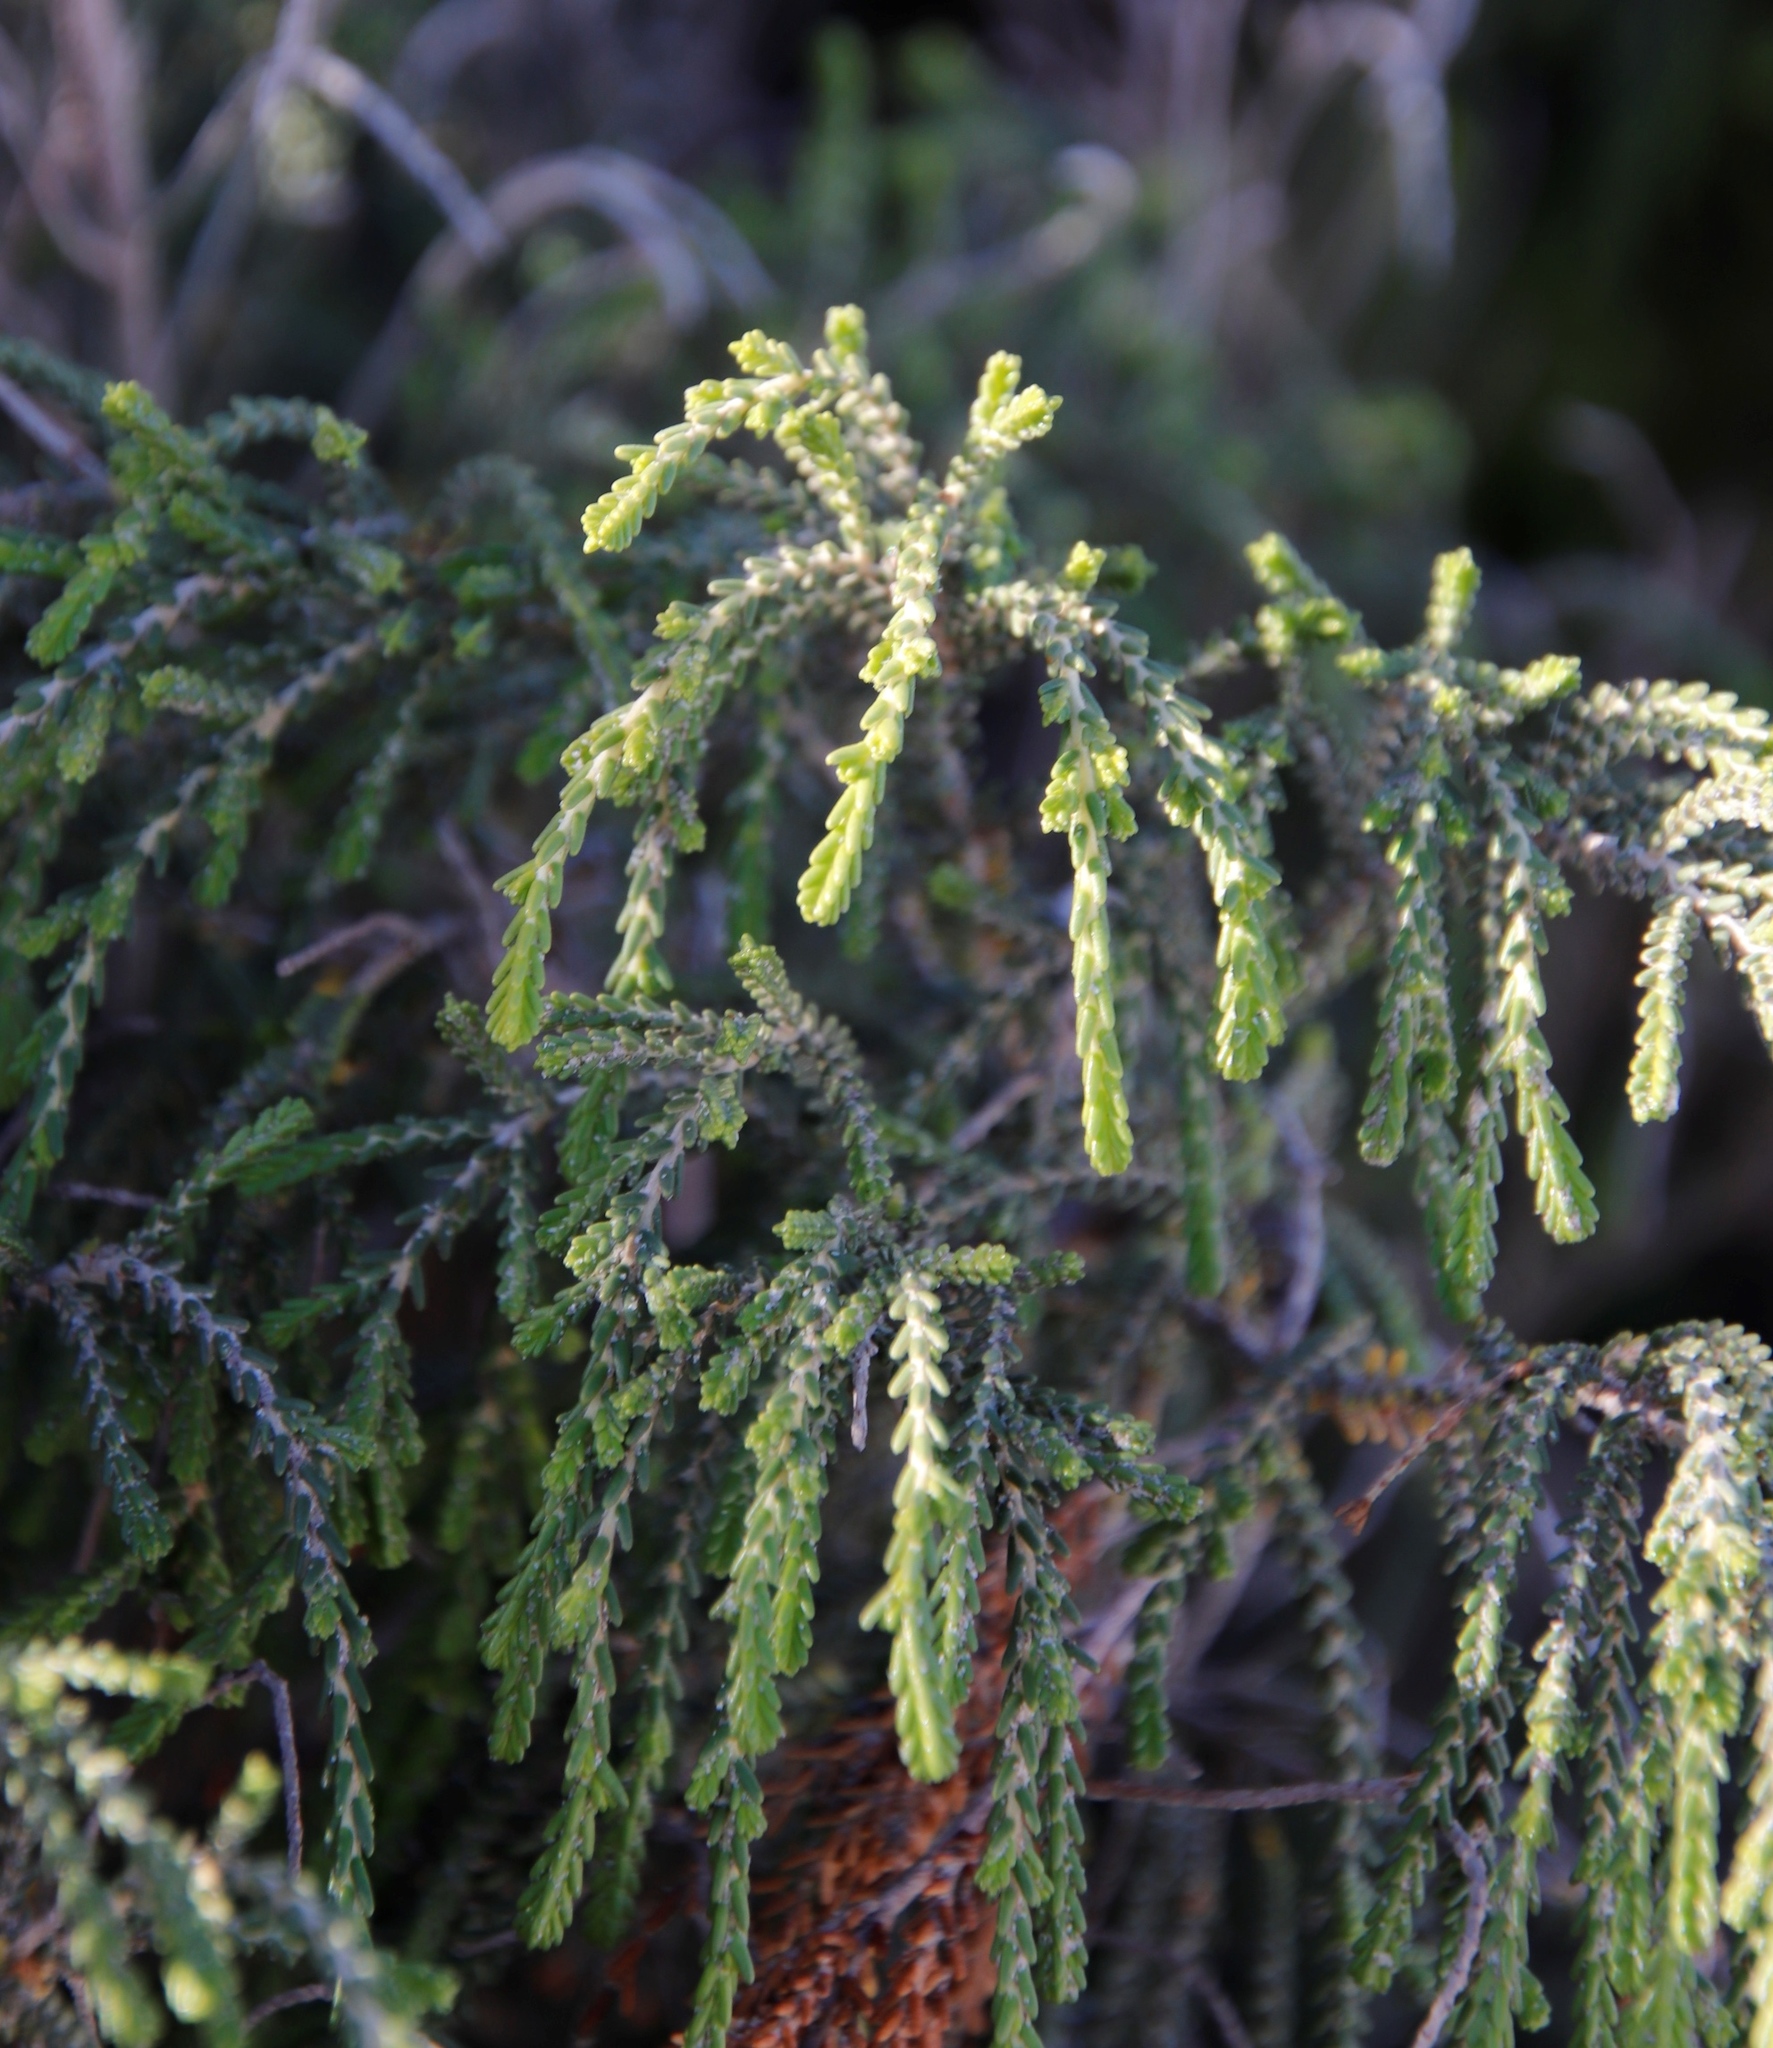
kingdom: Plantae
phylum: Tracheophyta
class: Magnoliopsida
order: Malvales
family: Thymelaeaceae
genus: Passerina
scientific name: Passerina ericoides
